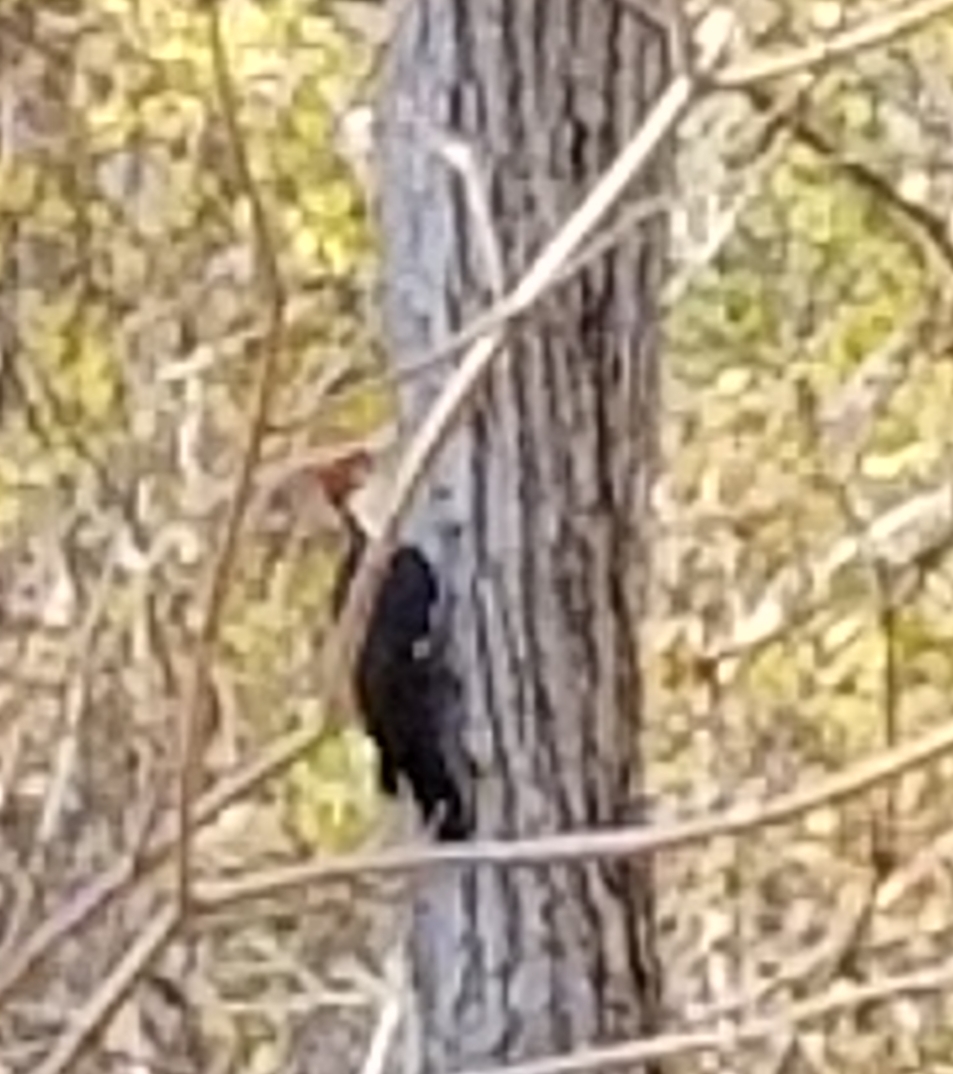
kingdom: Animalia
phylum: Chordata
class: Aves
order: Piciformes
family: Picidae
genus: Dryocopus
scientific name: Dryocopus pileatus
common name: Pileated woodpecker
